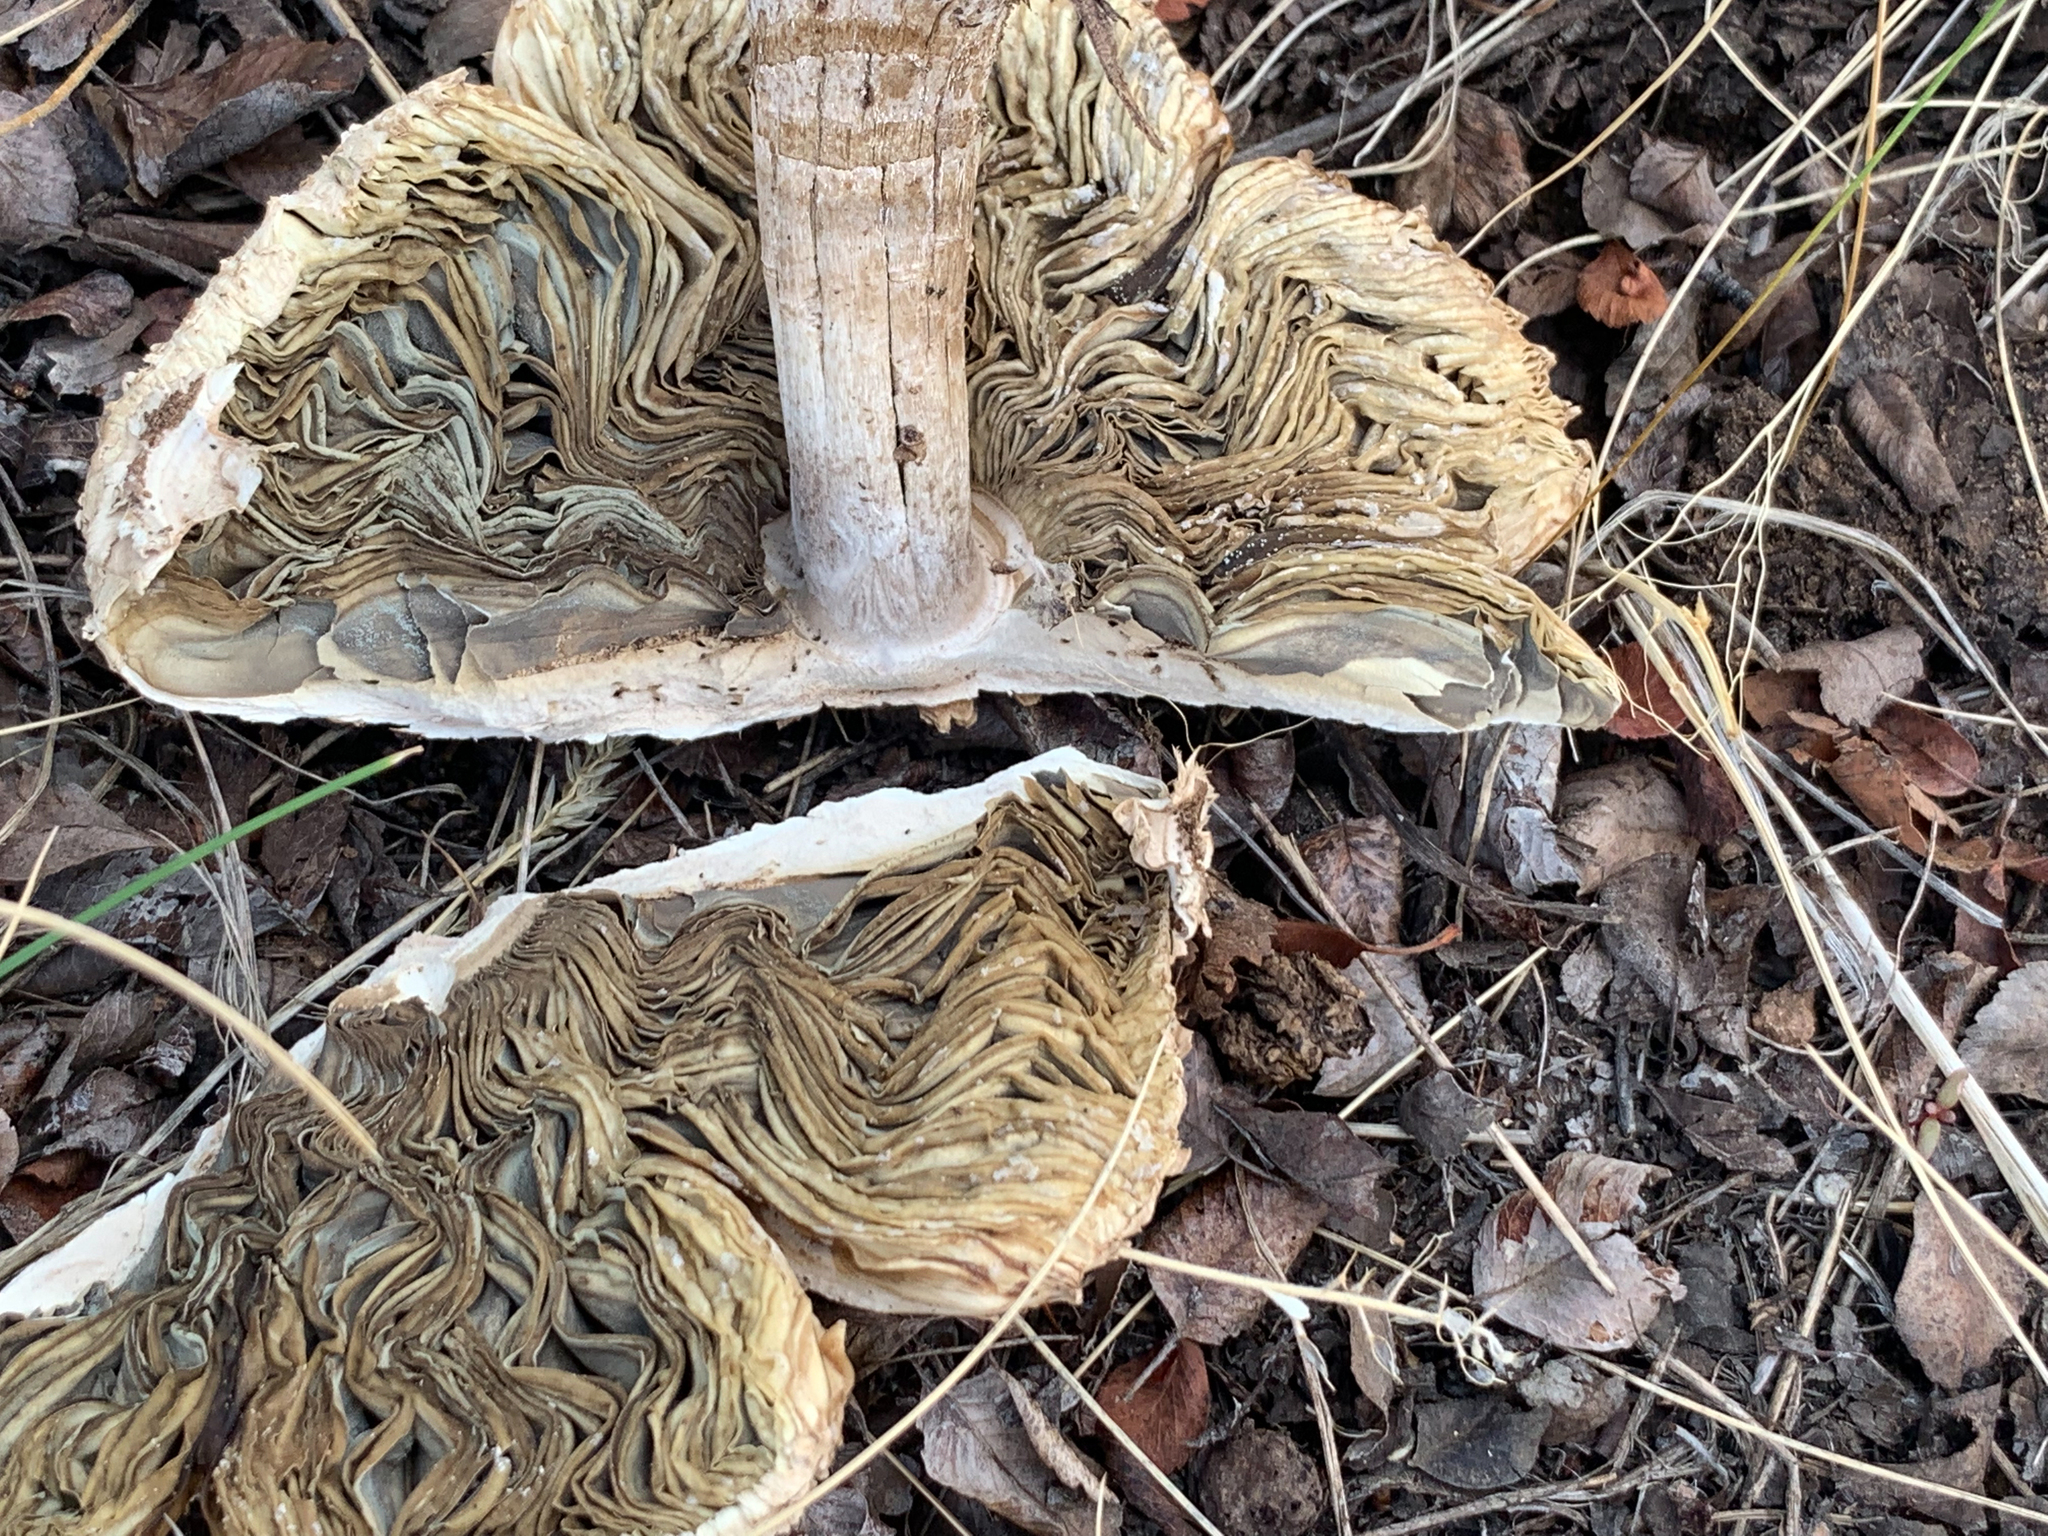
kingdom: Fungi
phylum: Basidiomycota
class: Agaricomycetes
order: Agaricales
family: Agaricaceae
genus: Chlorophyllum
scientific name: Chlorophyllum molybdites
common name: False parasol
